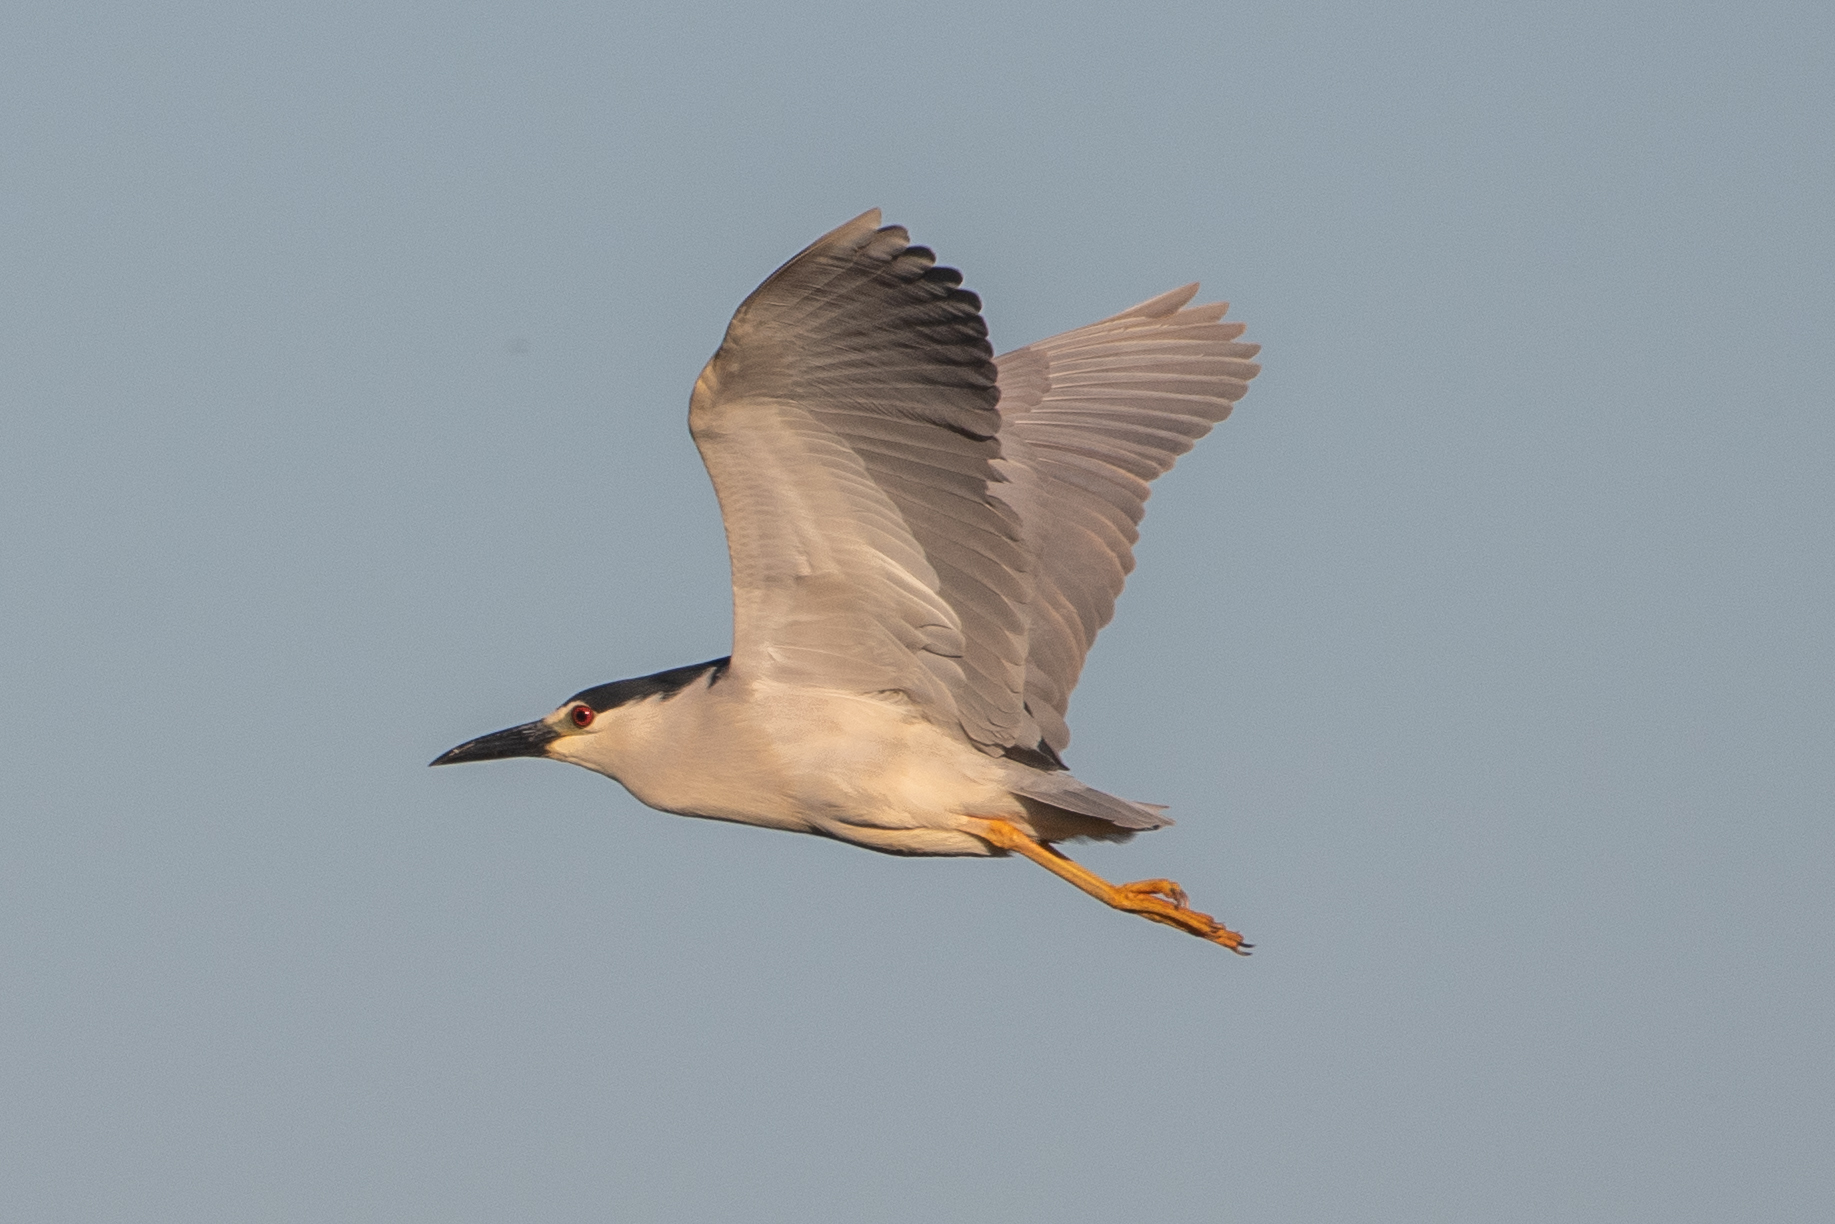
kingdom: Animalia
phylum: Chordata
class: Aves
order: Pelecaniformes
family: Ardeidae
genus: Nycticorax
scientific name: Nycticorax nycticorax
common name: Black-crowned night heron
